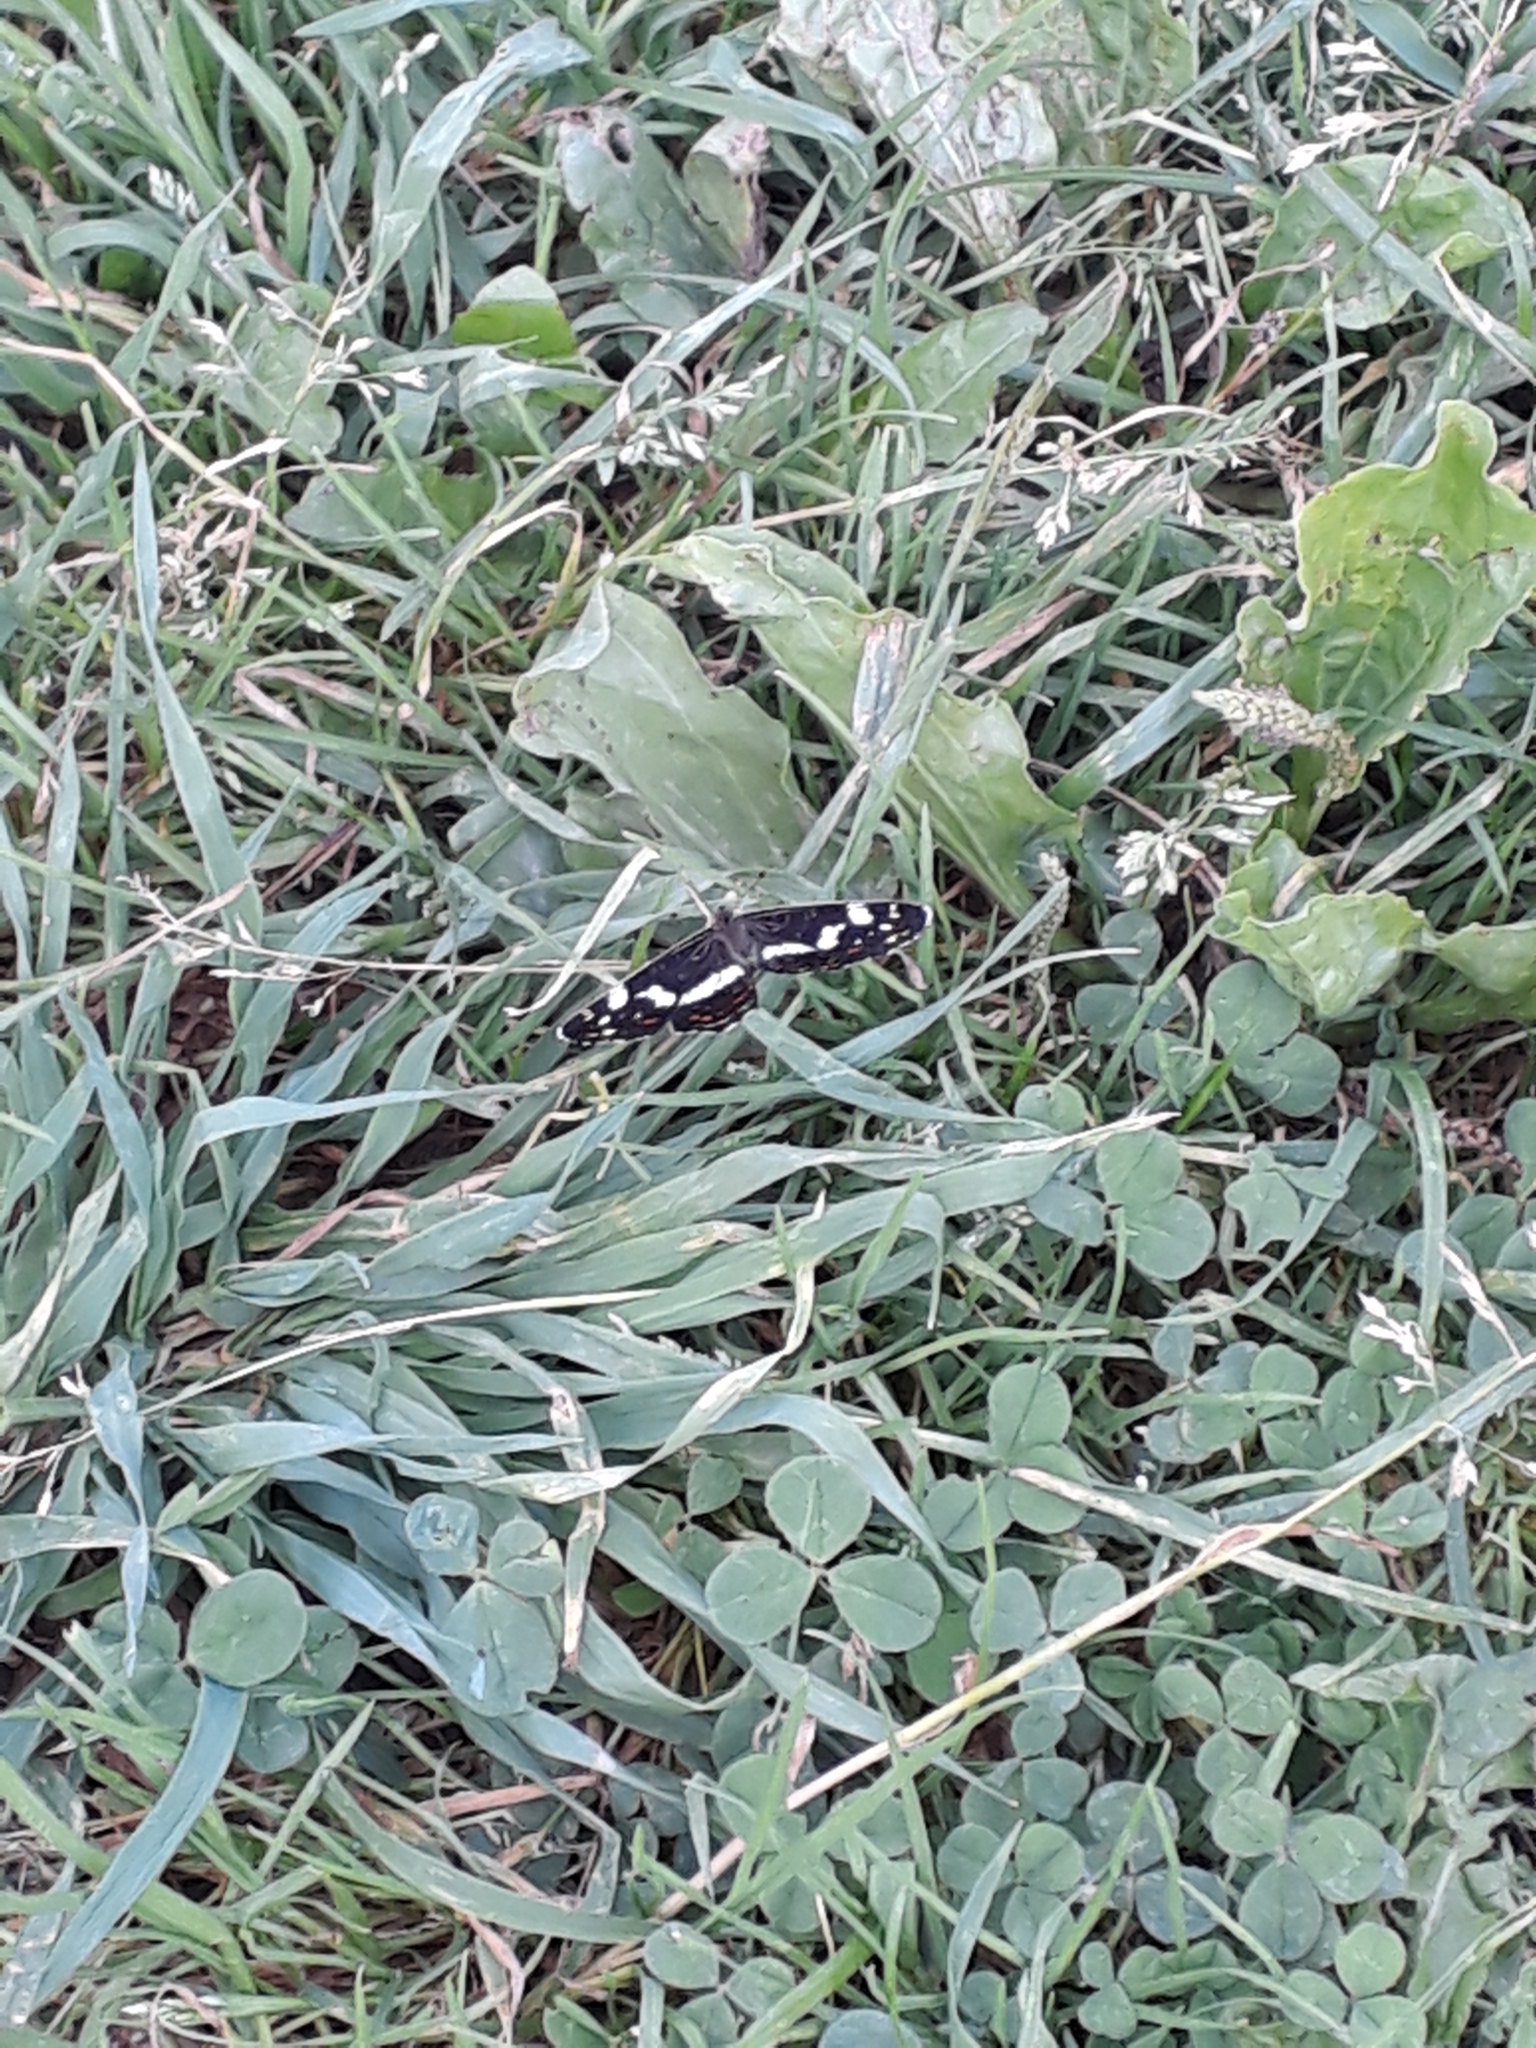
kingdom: Animalia
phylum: Arthropoda
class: Insecta
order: Lepidoptera
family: Nymphalidae
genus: Araschnia
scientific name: Araschnia levana
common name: Map butterfly
